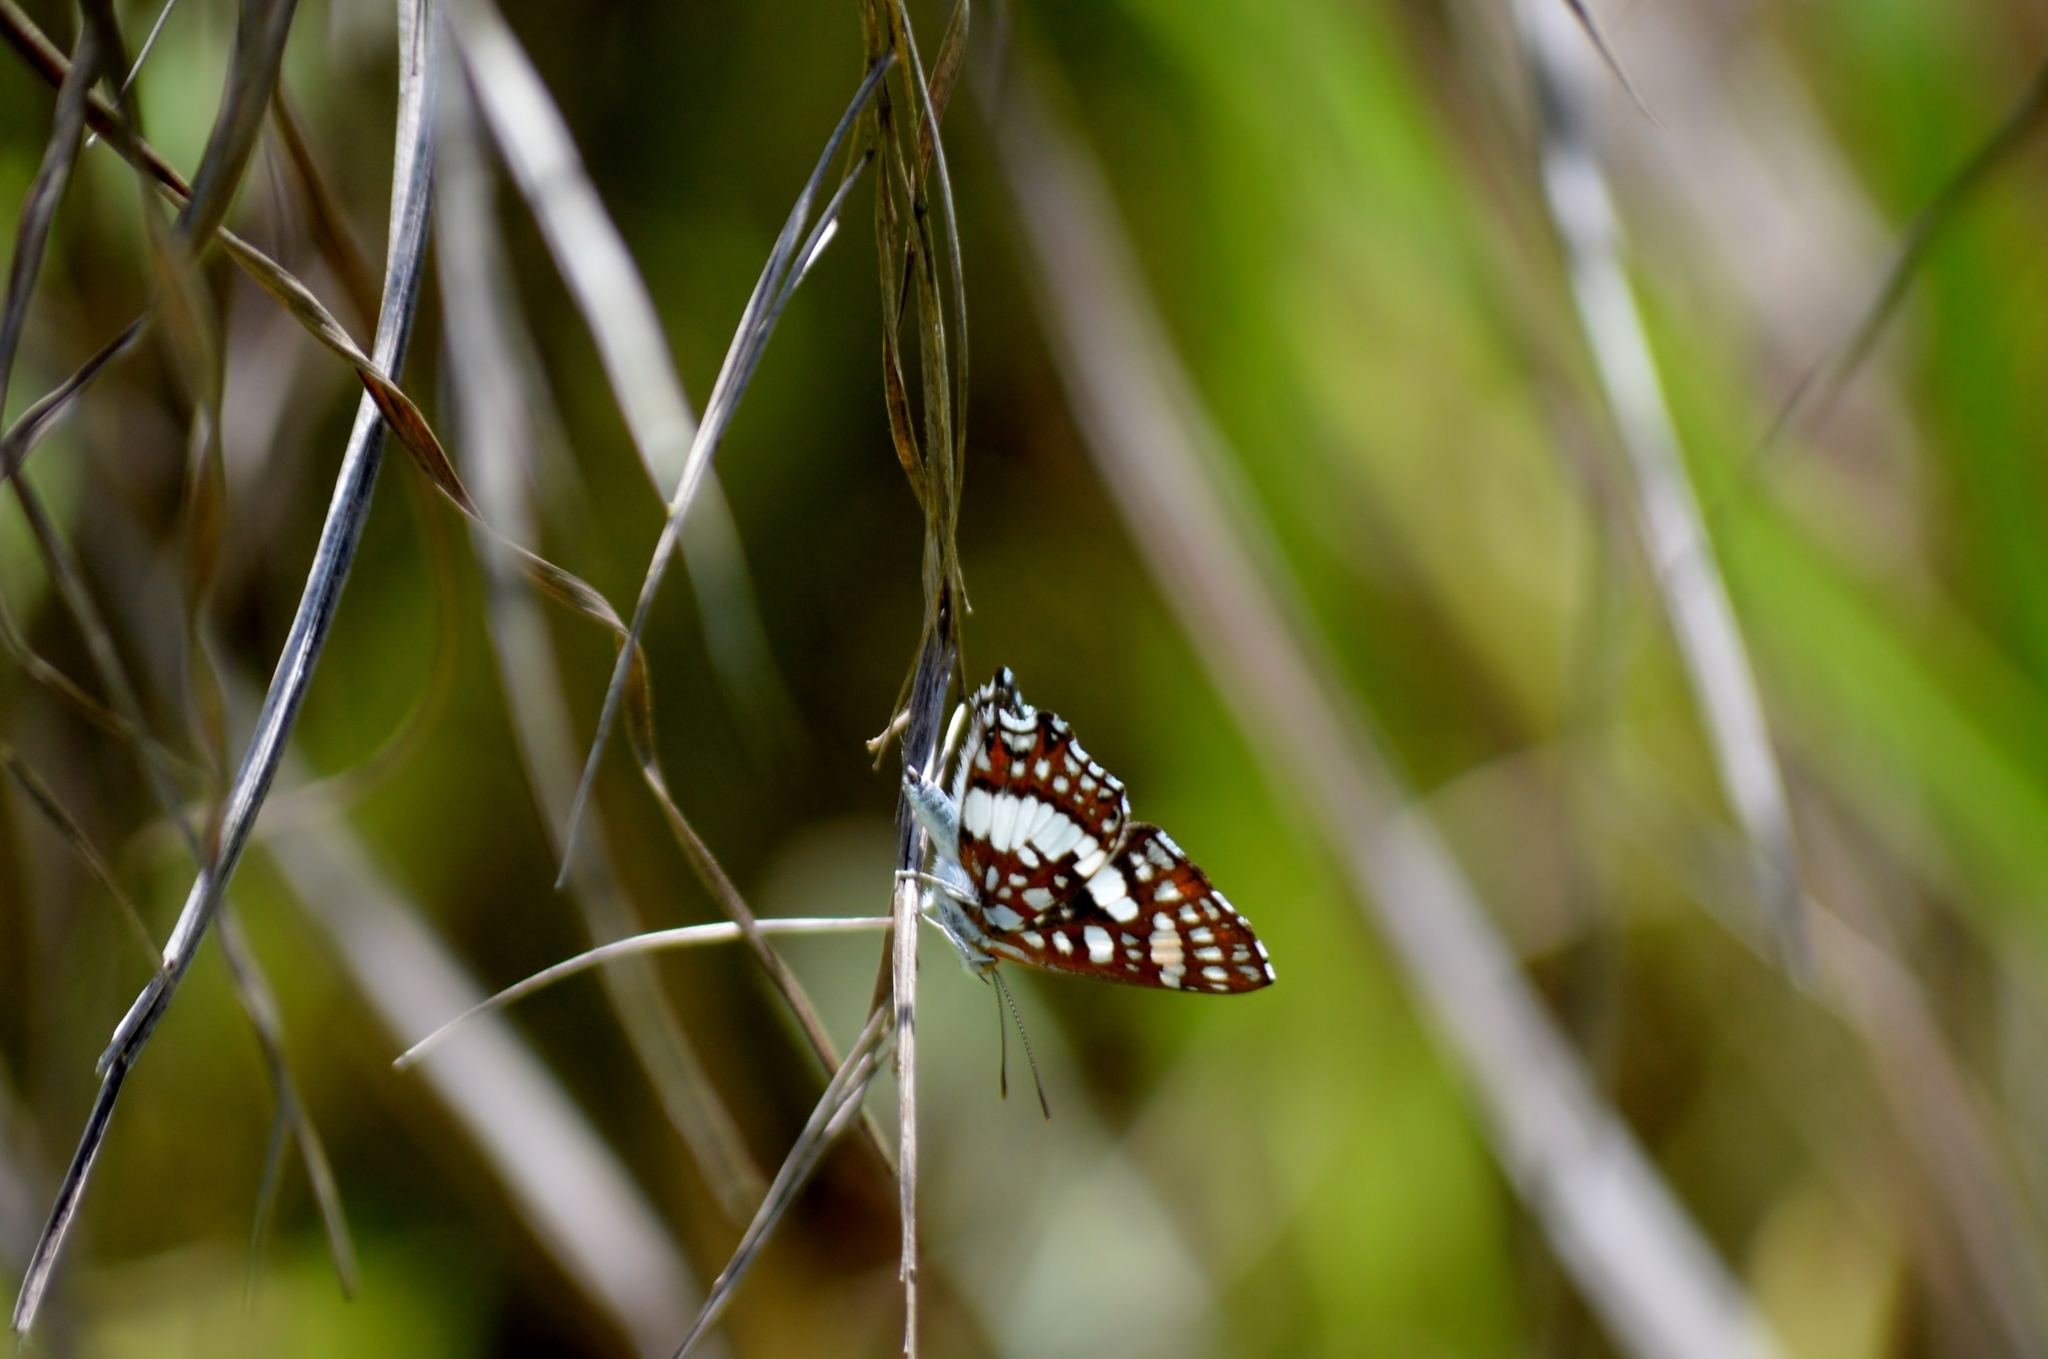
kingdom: Animalia
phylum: Arthropoda
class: Insecta
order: Lepidoptera
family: Riodinidae
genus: Ariconias
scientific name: Ariconias glaphyra
